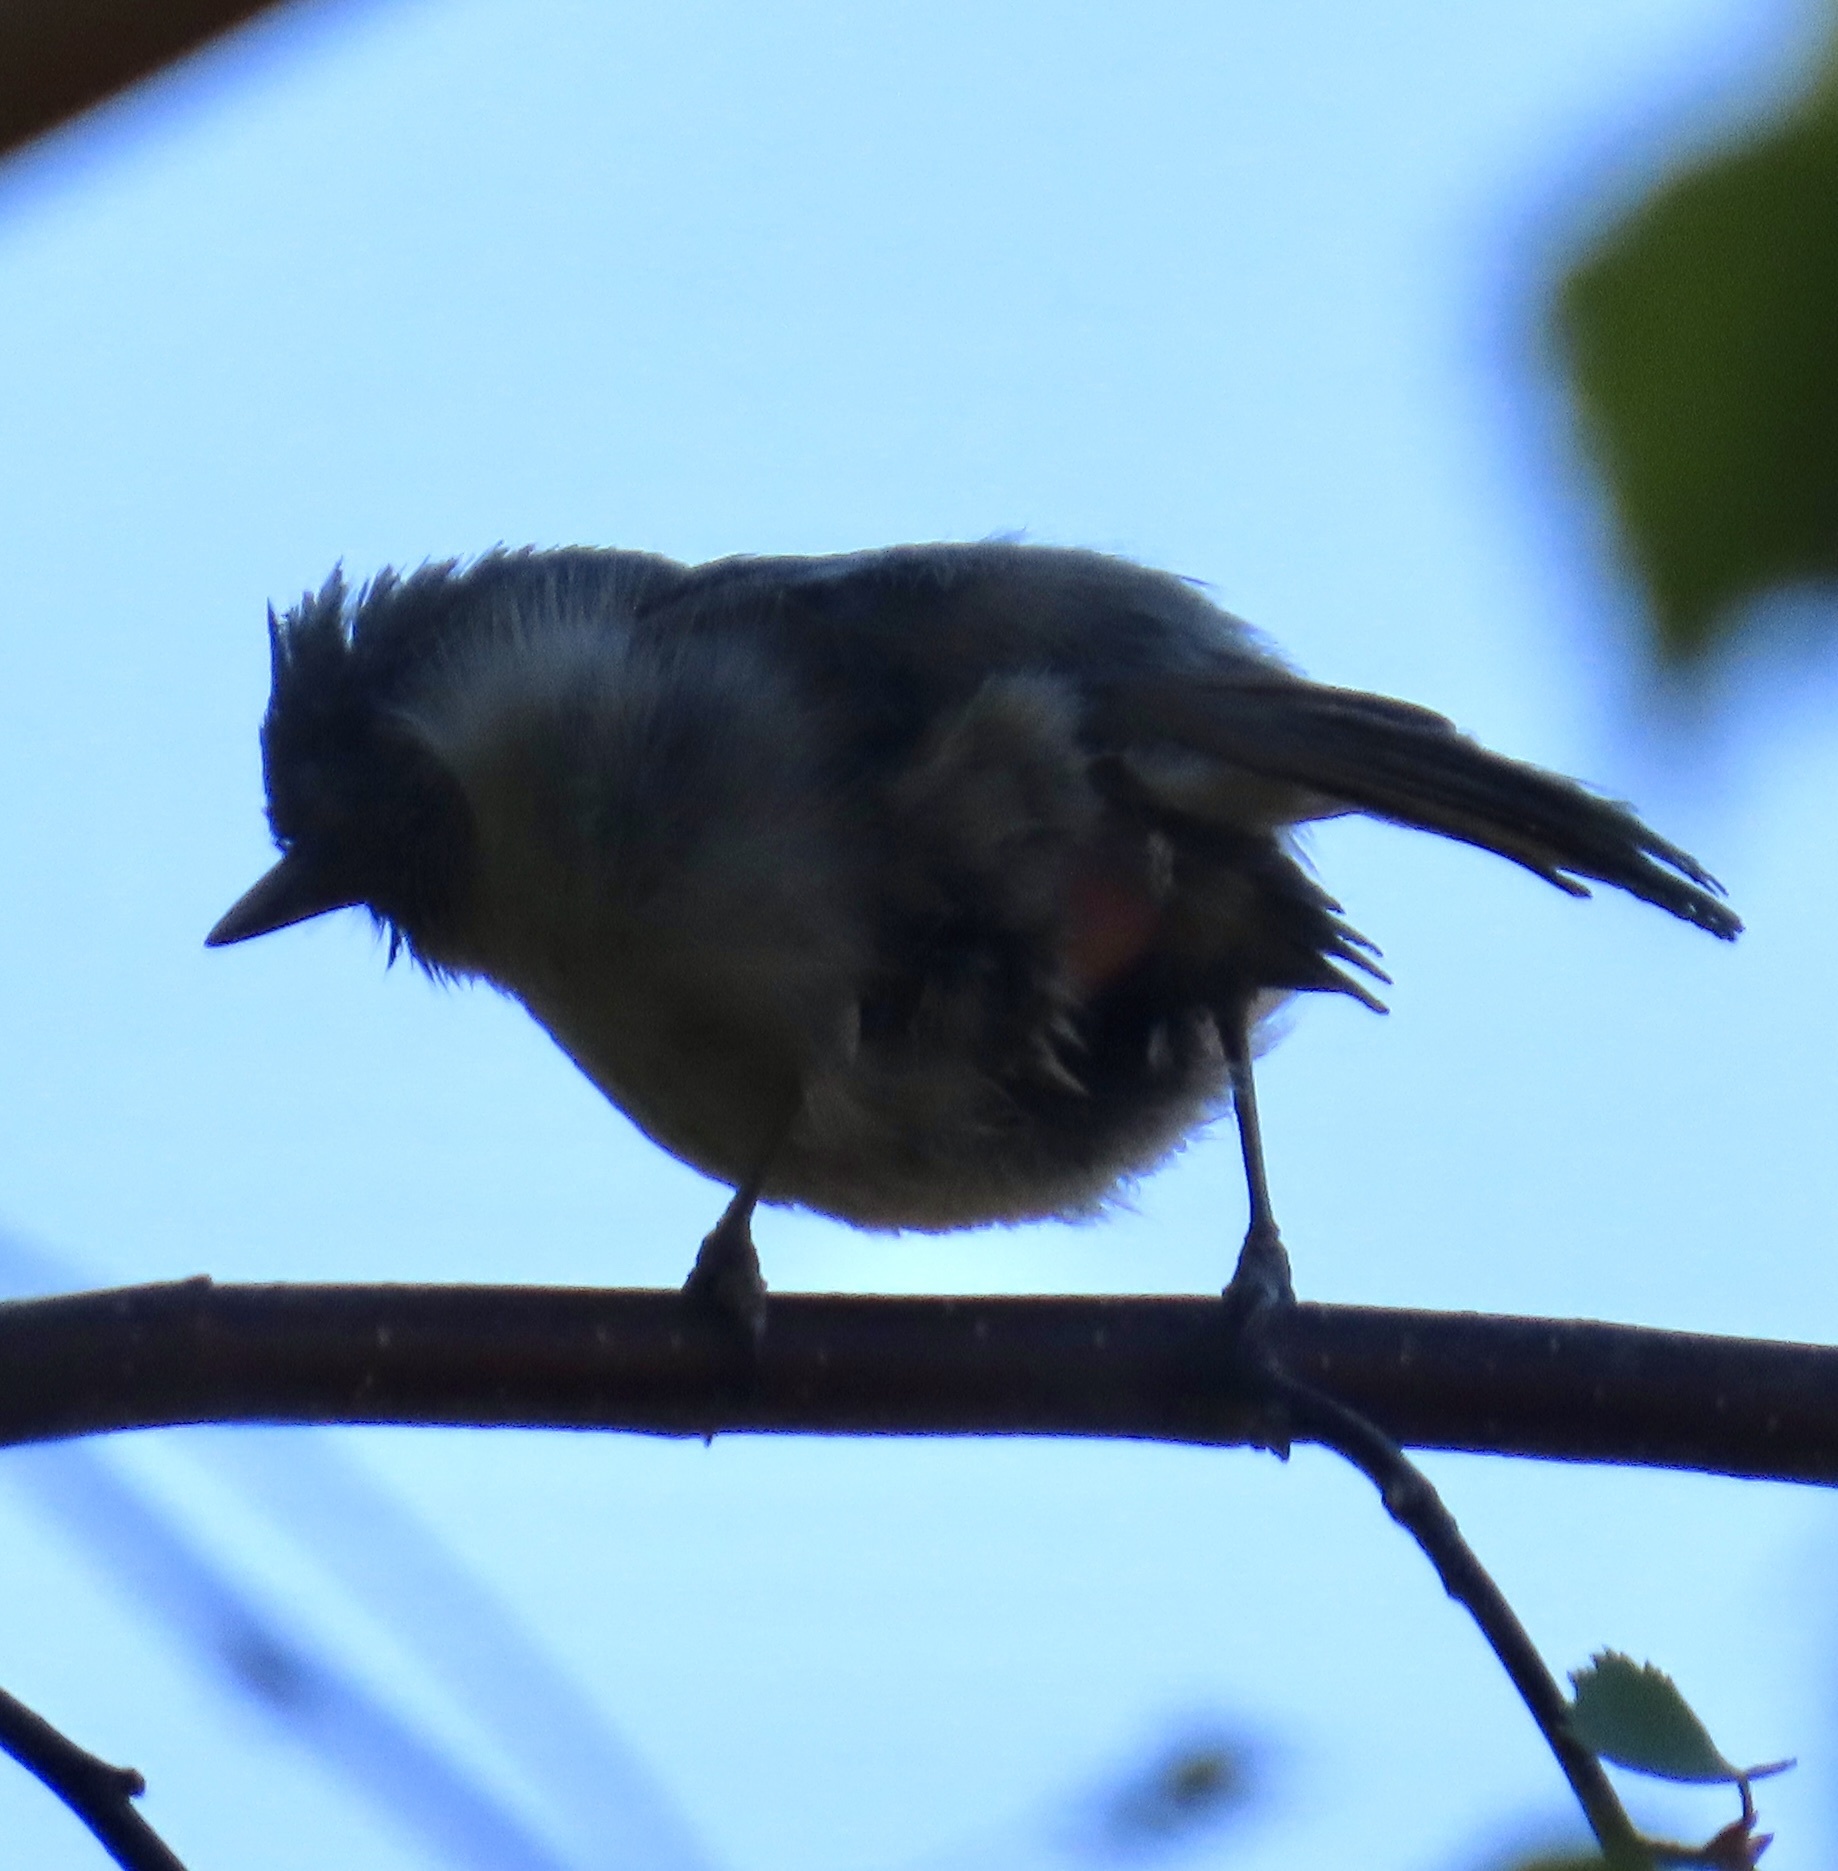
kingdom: Animalia
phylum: Chordata
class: Aves
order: Passeriformes
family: Paridae
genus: Baeolophus
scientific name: Baeolophus inornatus
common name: Oak titmouse
